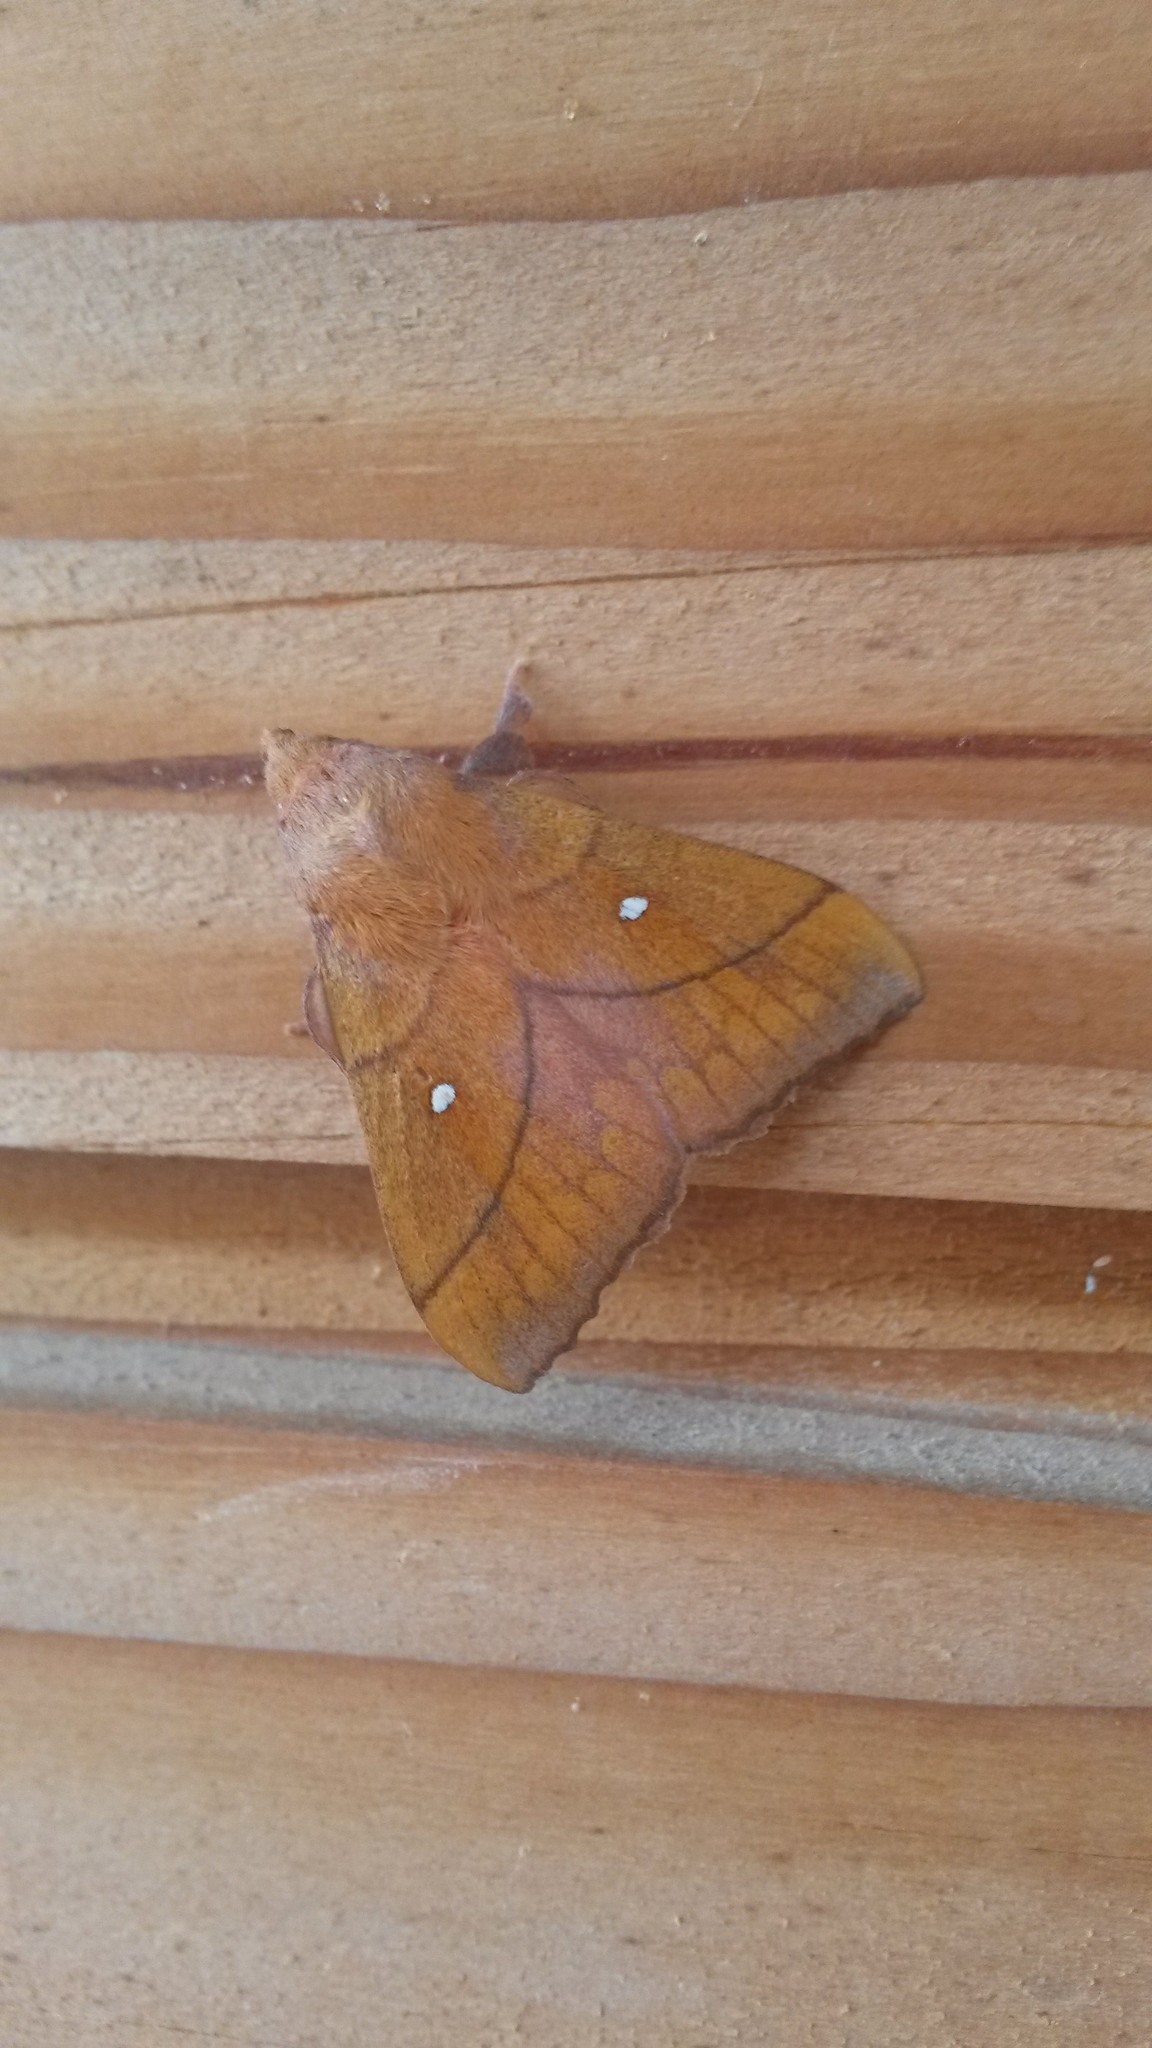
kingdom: Animalia
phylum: Arthropoda
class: Insecta
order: Lepidoptera
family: Lasiocampidae
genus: Odonestis
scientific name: Odonestis pruni
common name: Plum lappet
